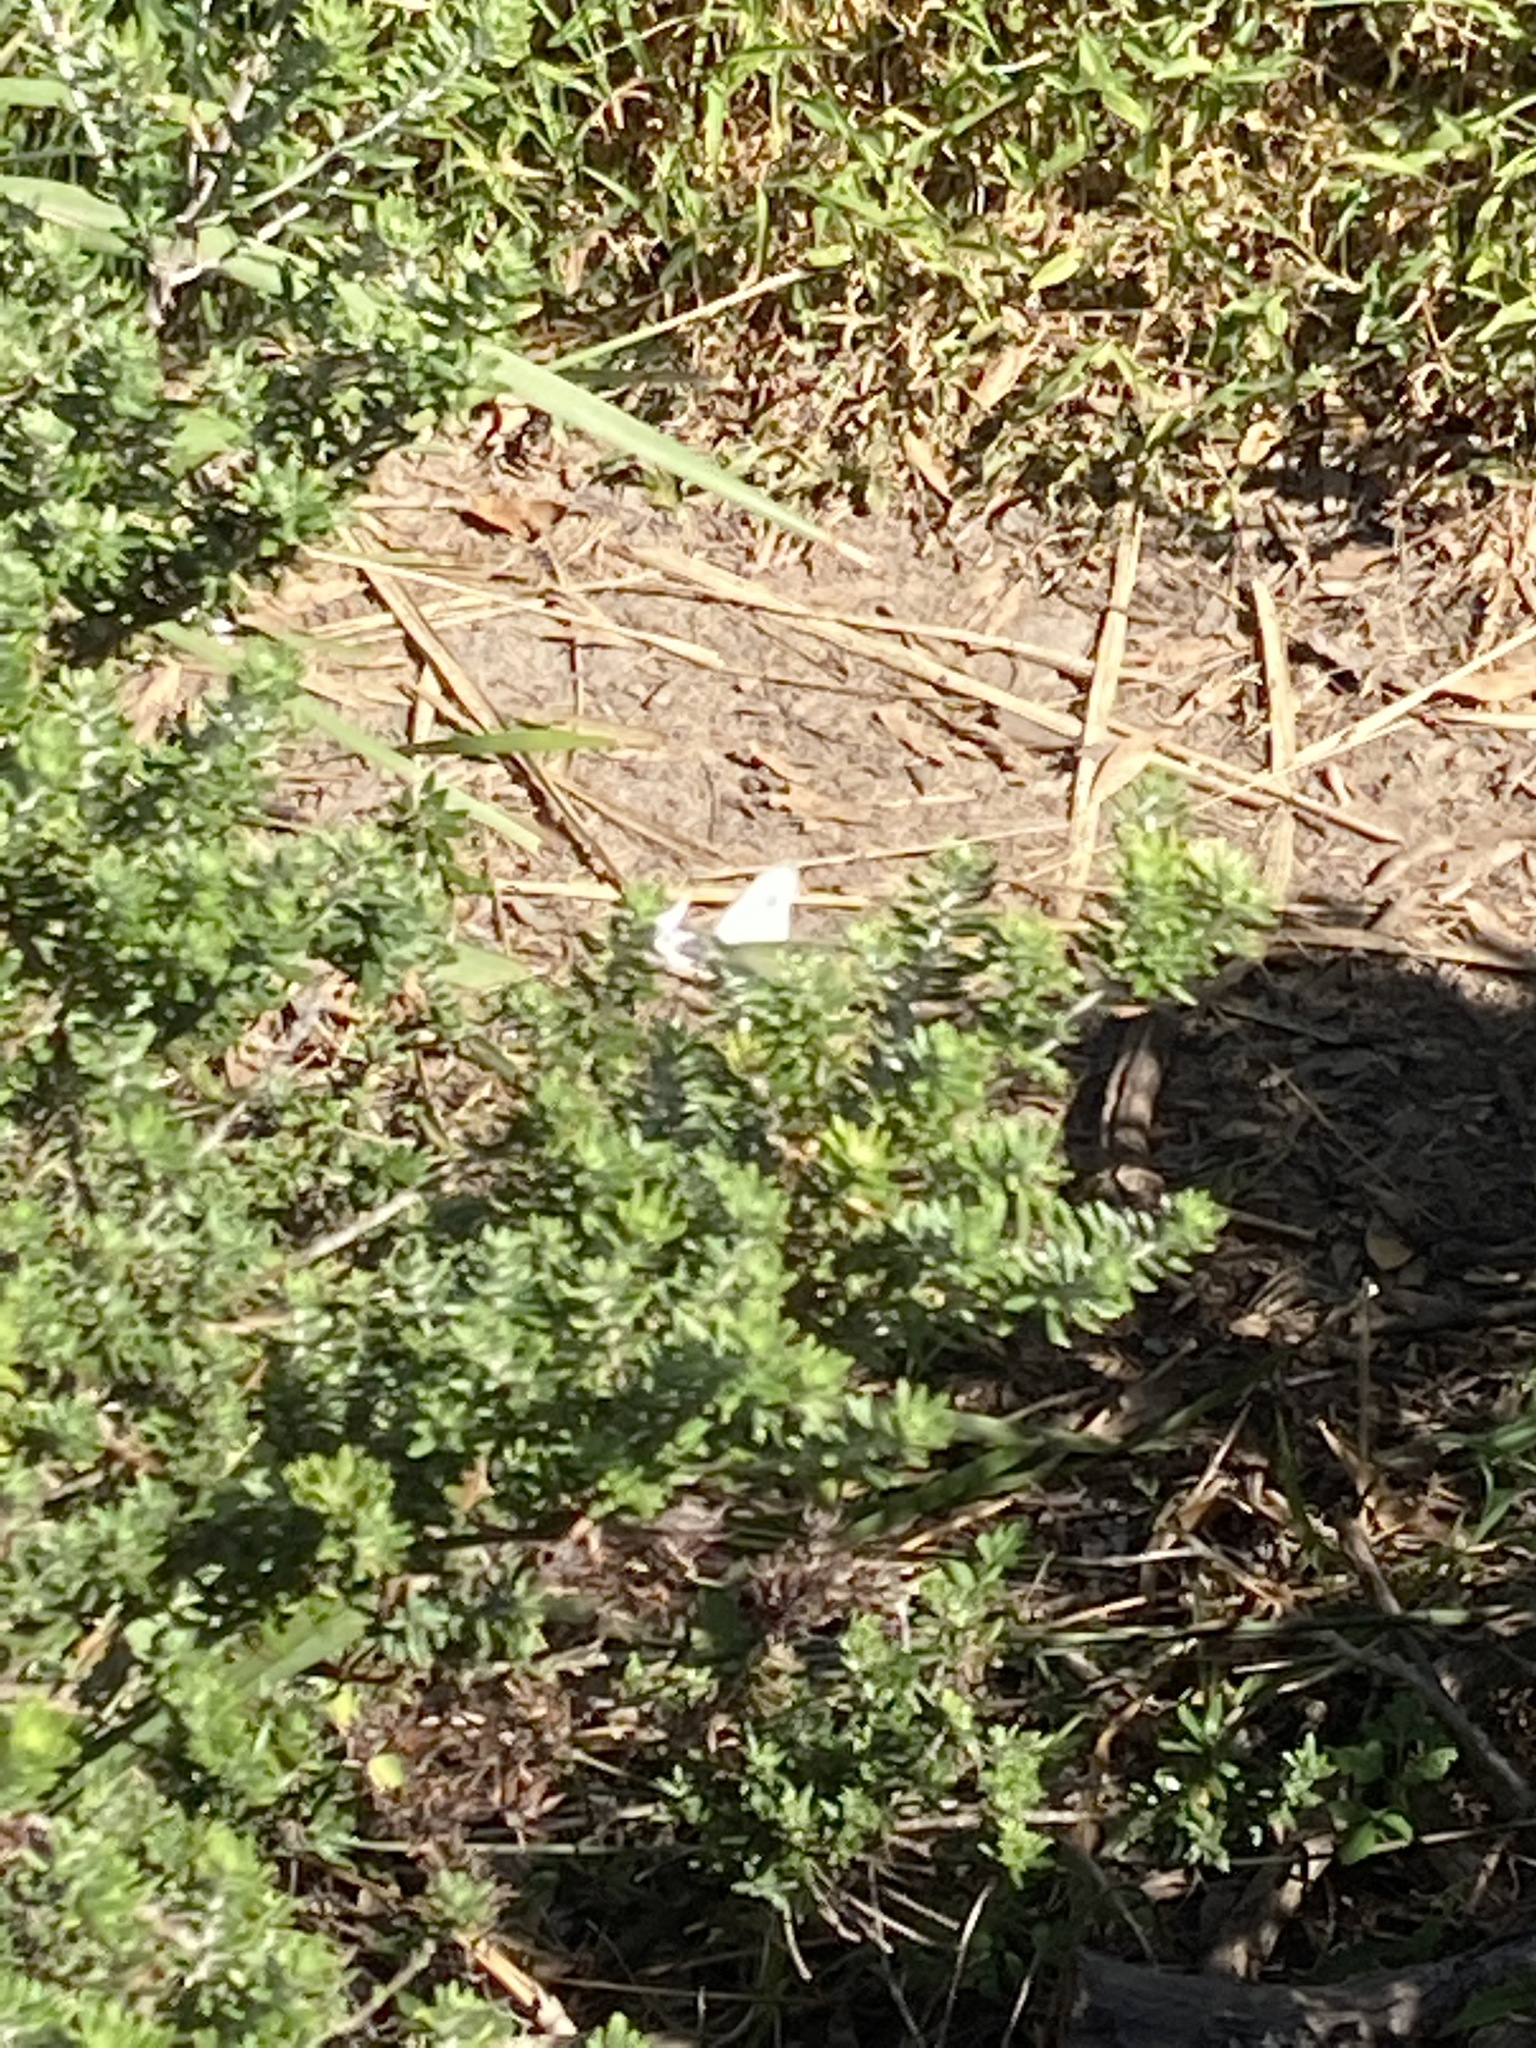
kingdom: Animalia
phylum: Arthropoda
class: Insecta
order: Lepidoptera
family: Pieridae
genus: Pieris
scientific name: Pieris rapae
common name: Small white
